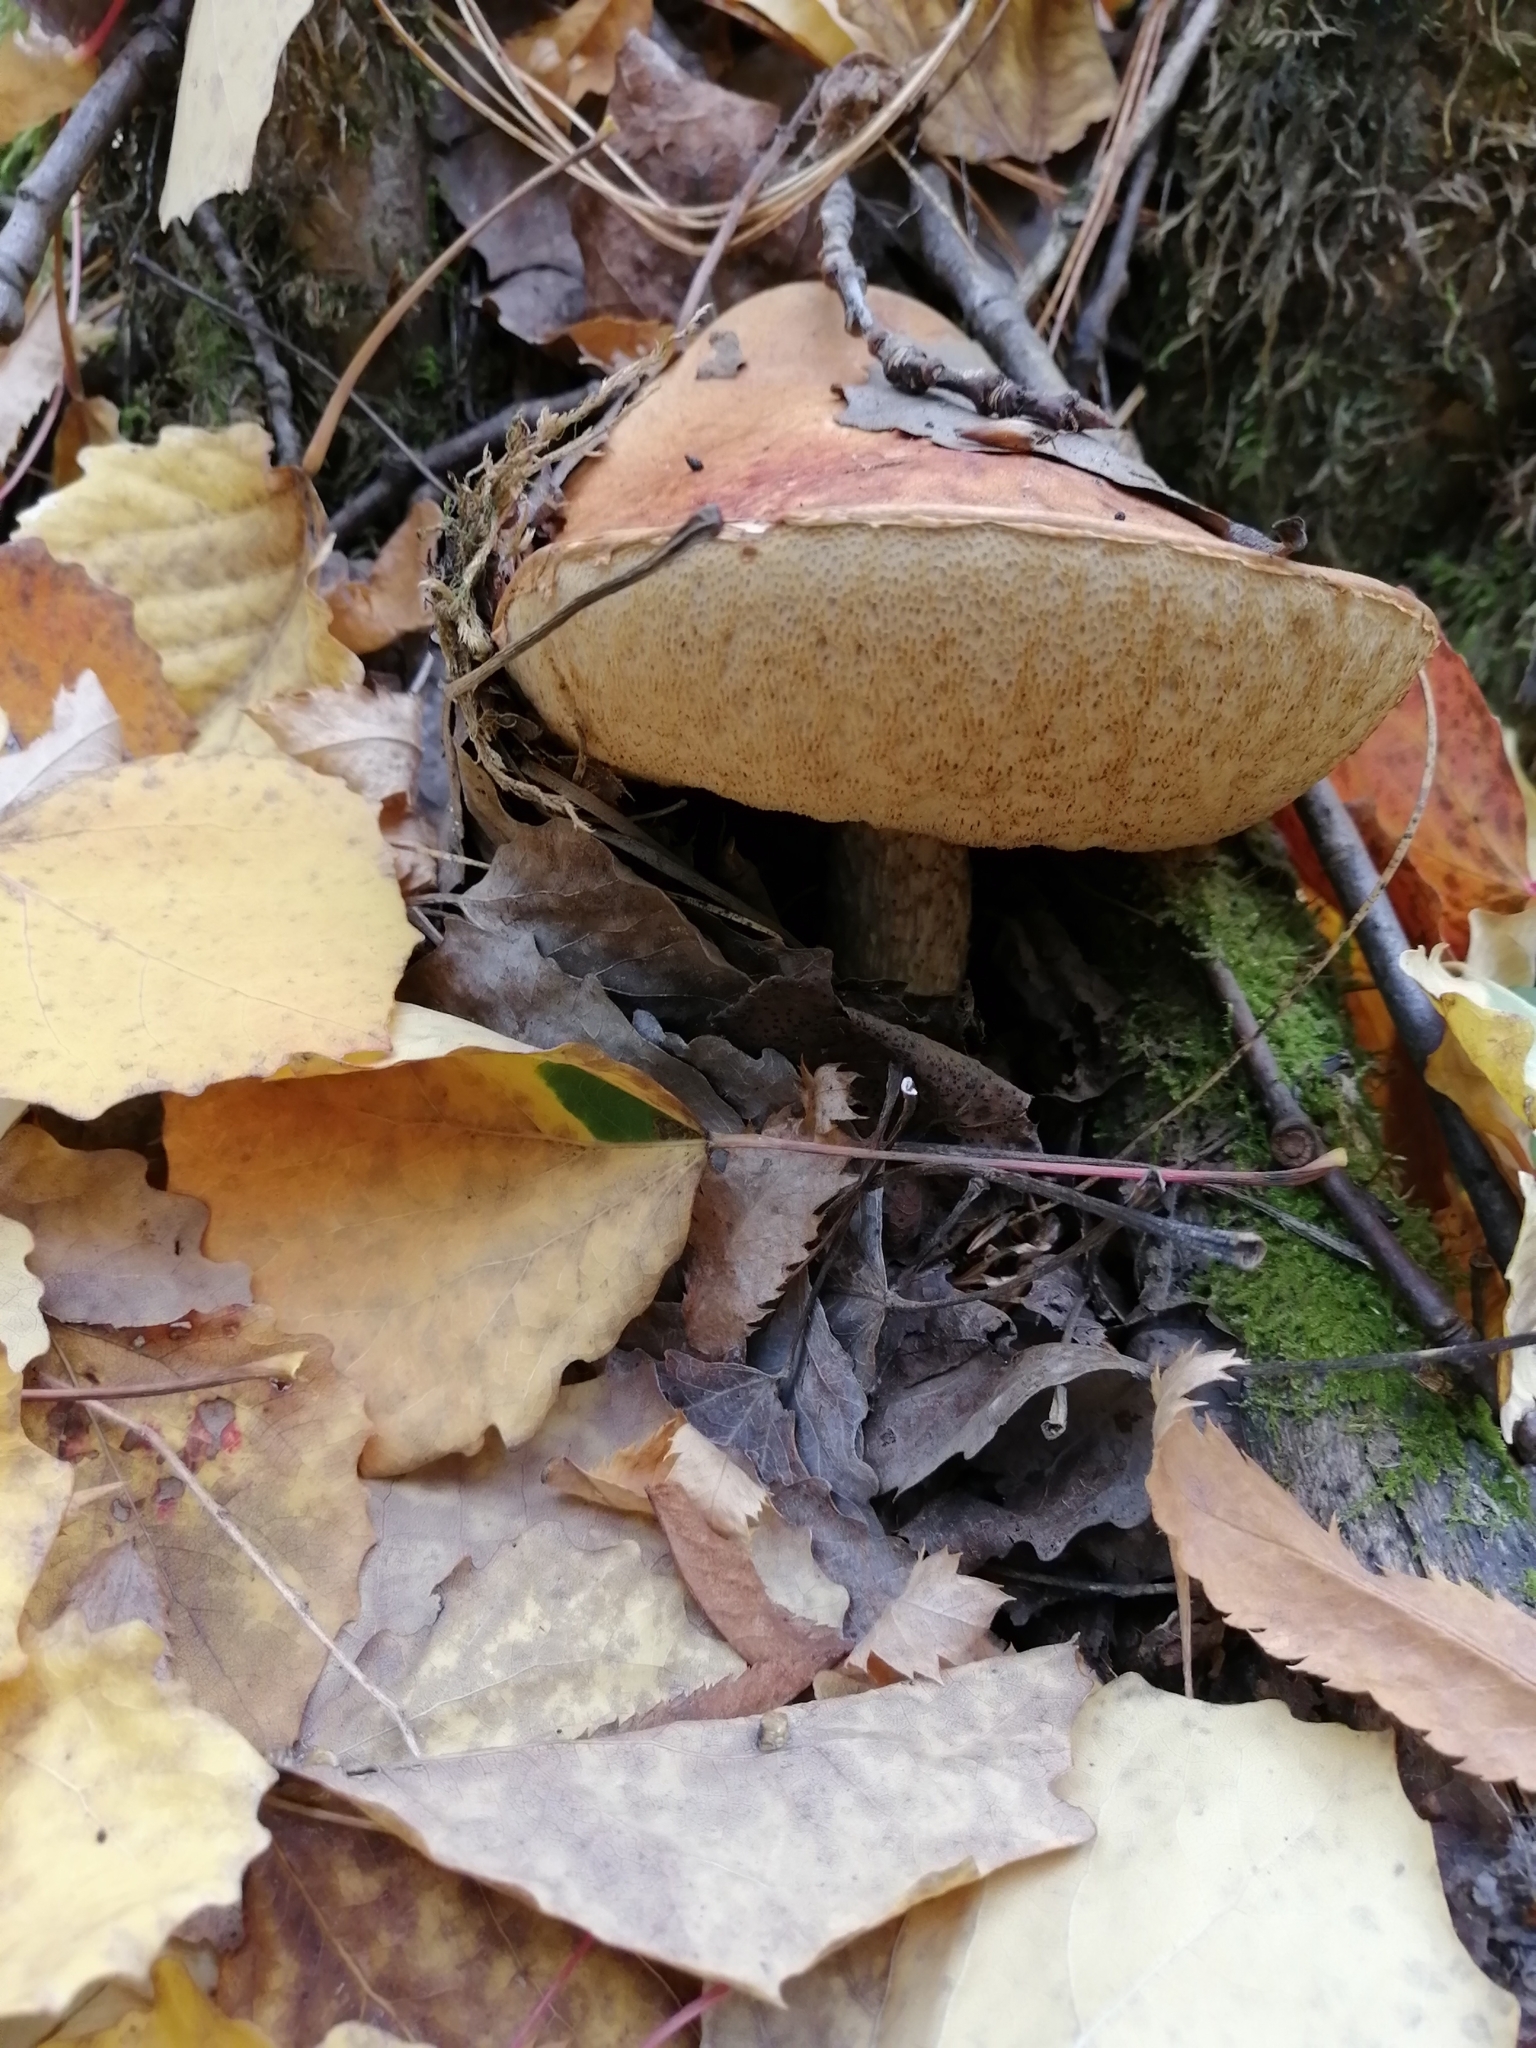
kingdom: Fungi
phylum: Basidiomycota
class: Agaricomycetes
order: Boletales
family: Boletaceae
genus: Leccinum
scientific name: Leccinum scabrum
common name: Blushing bolete
